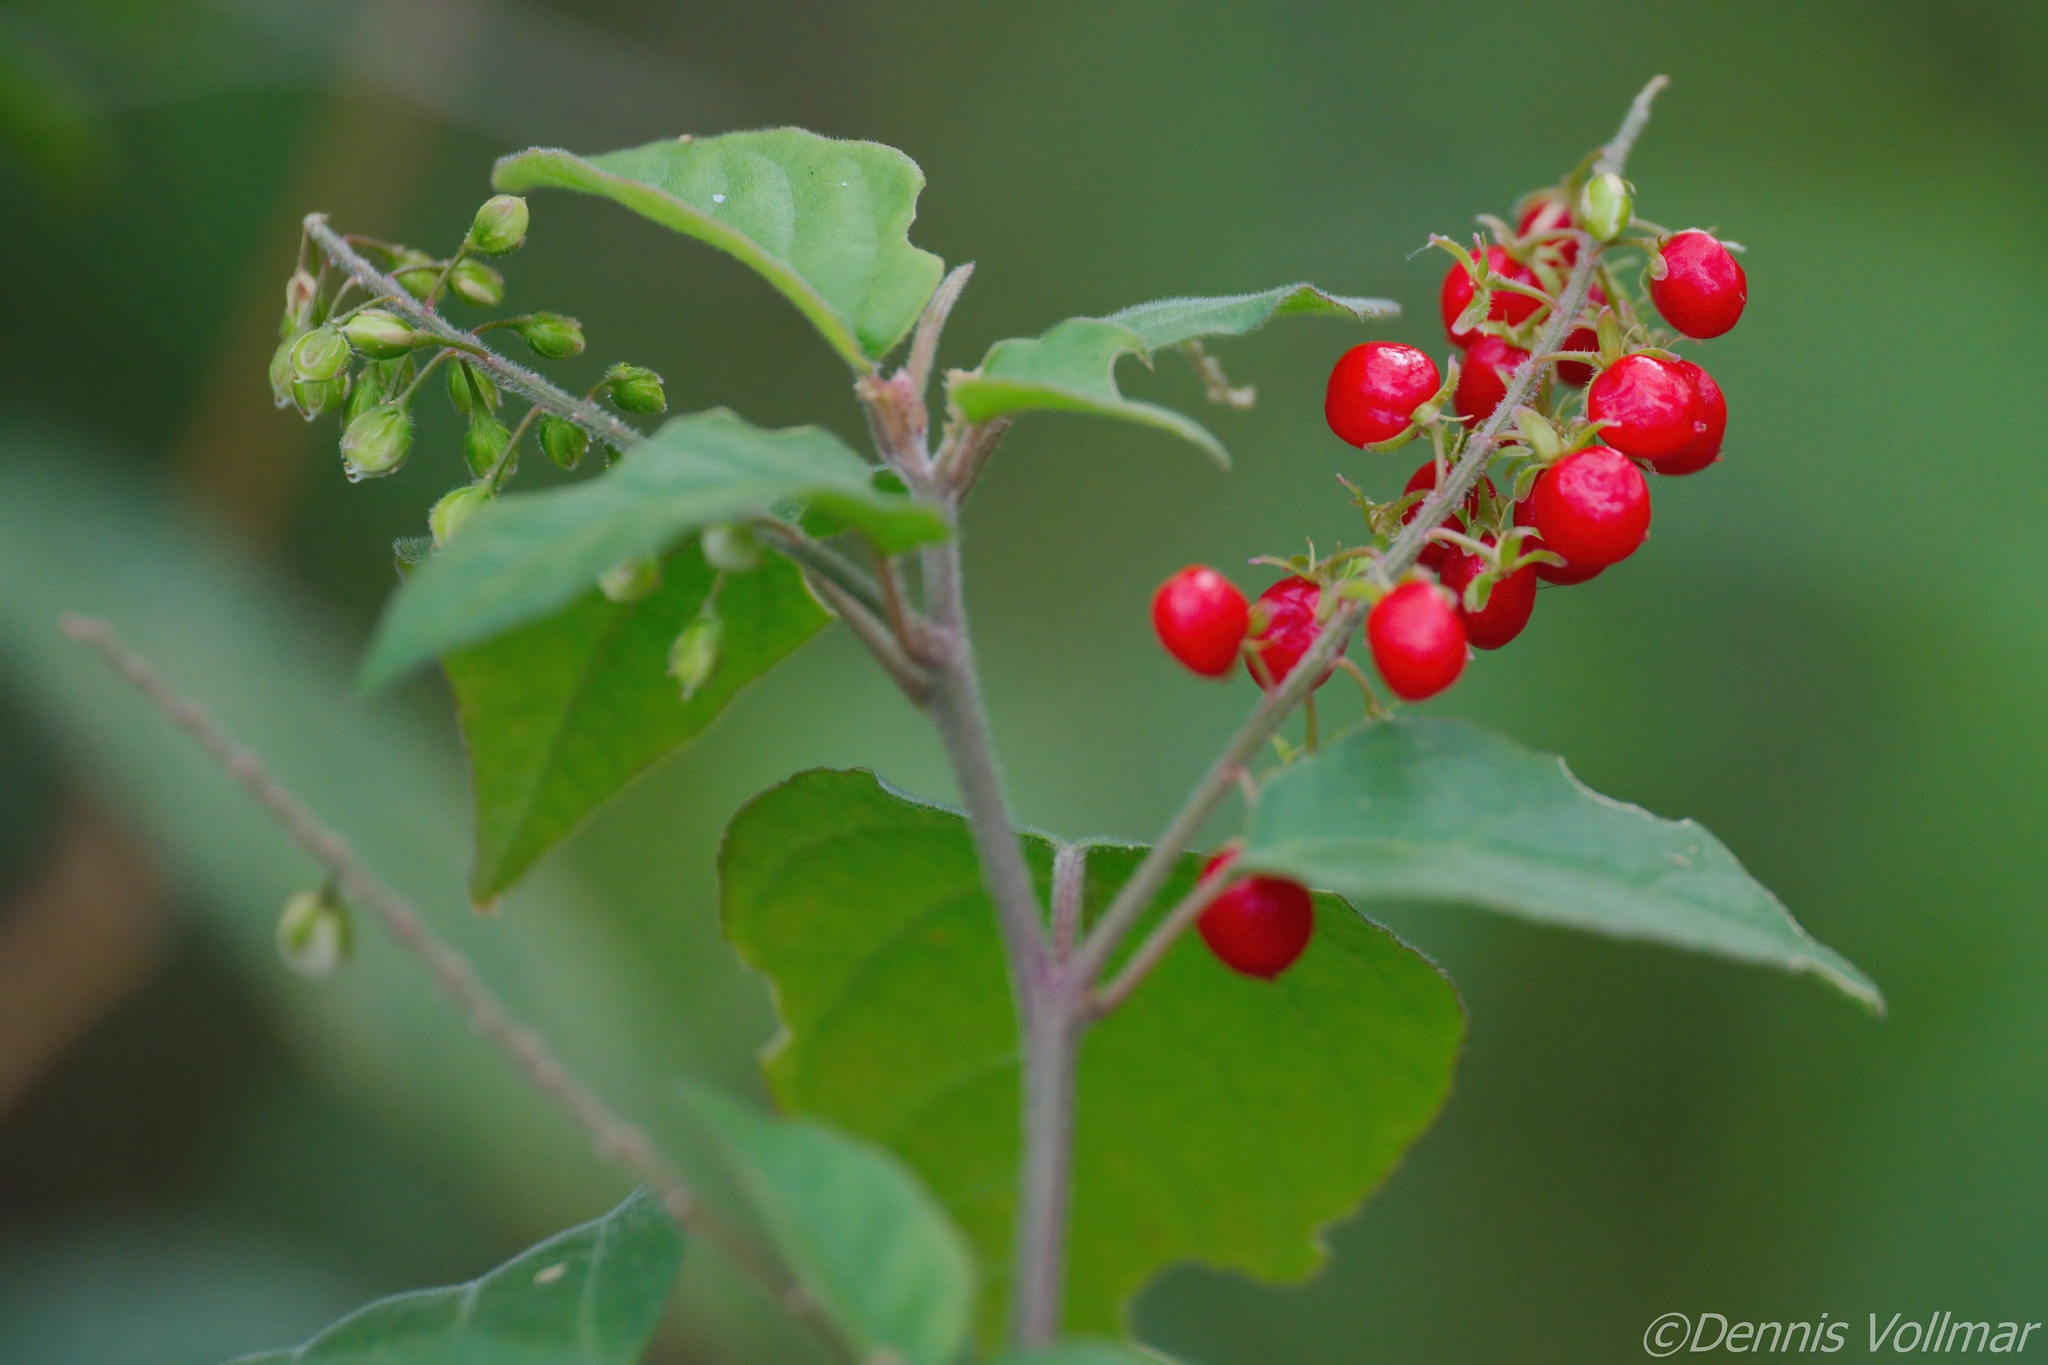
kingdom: Plantae
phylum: Tracheophyta
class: Magnoliopsida
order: Caryophyllales
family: Phytolaccaceae
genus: Rivina
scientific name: Rivina humilis
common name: Rougeplant
